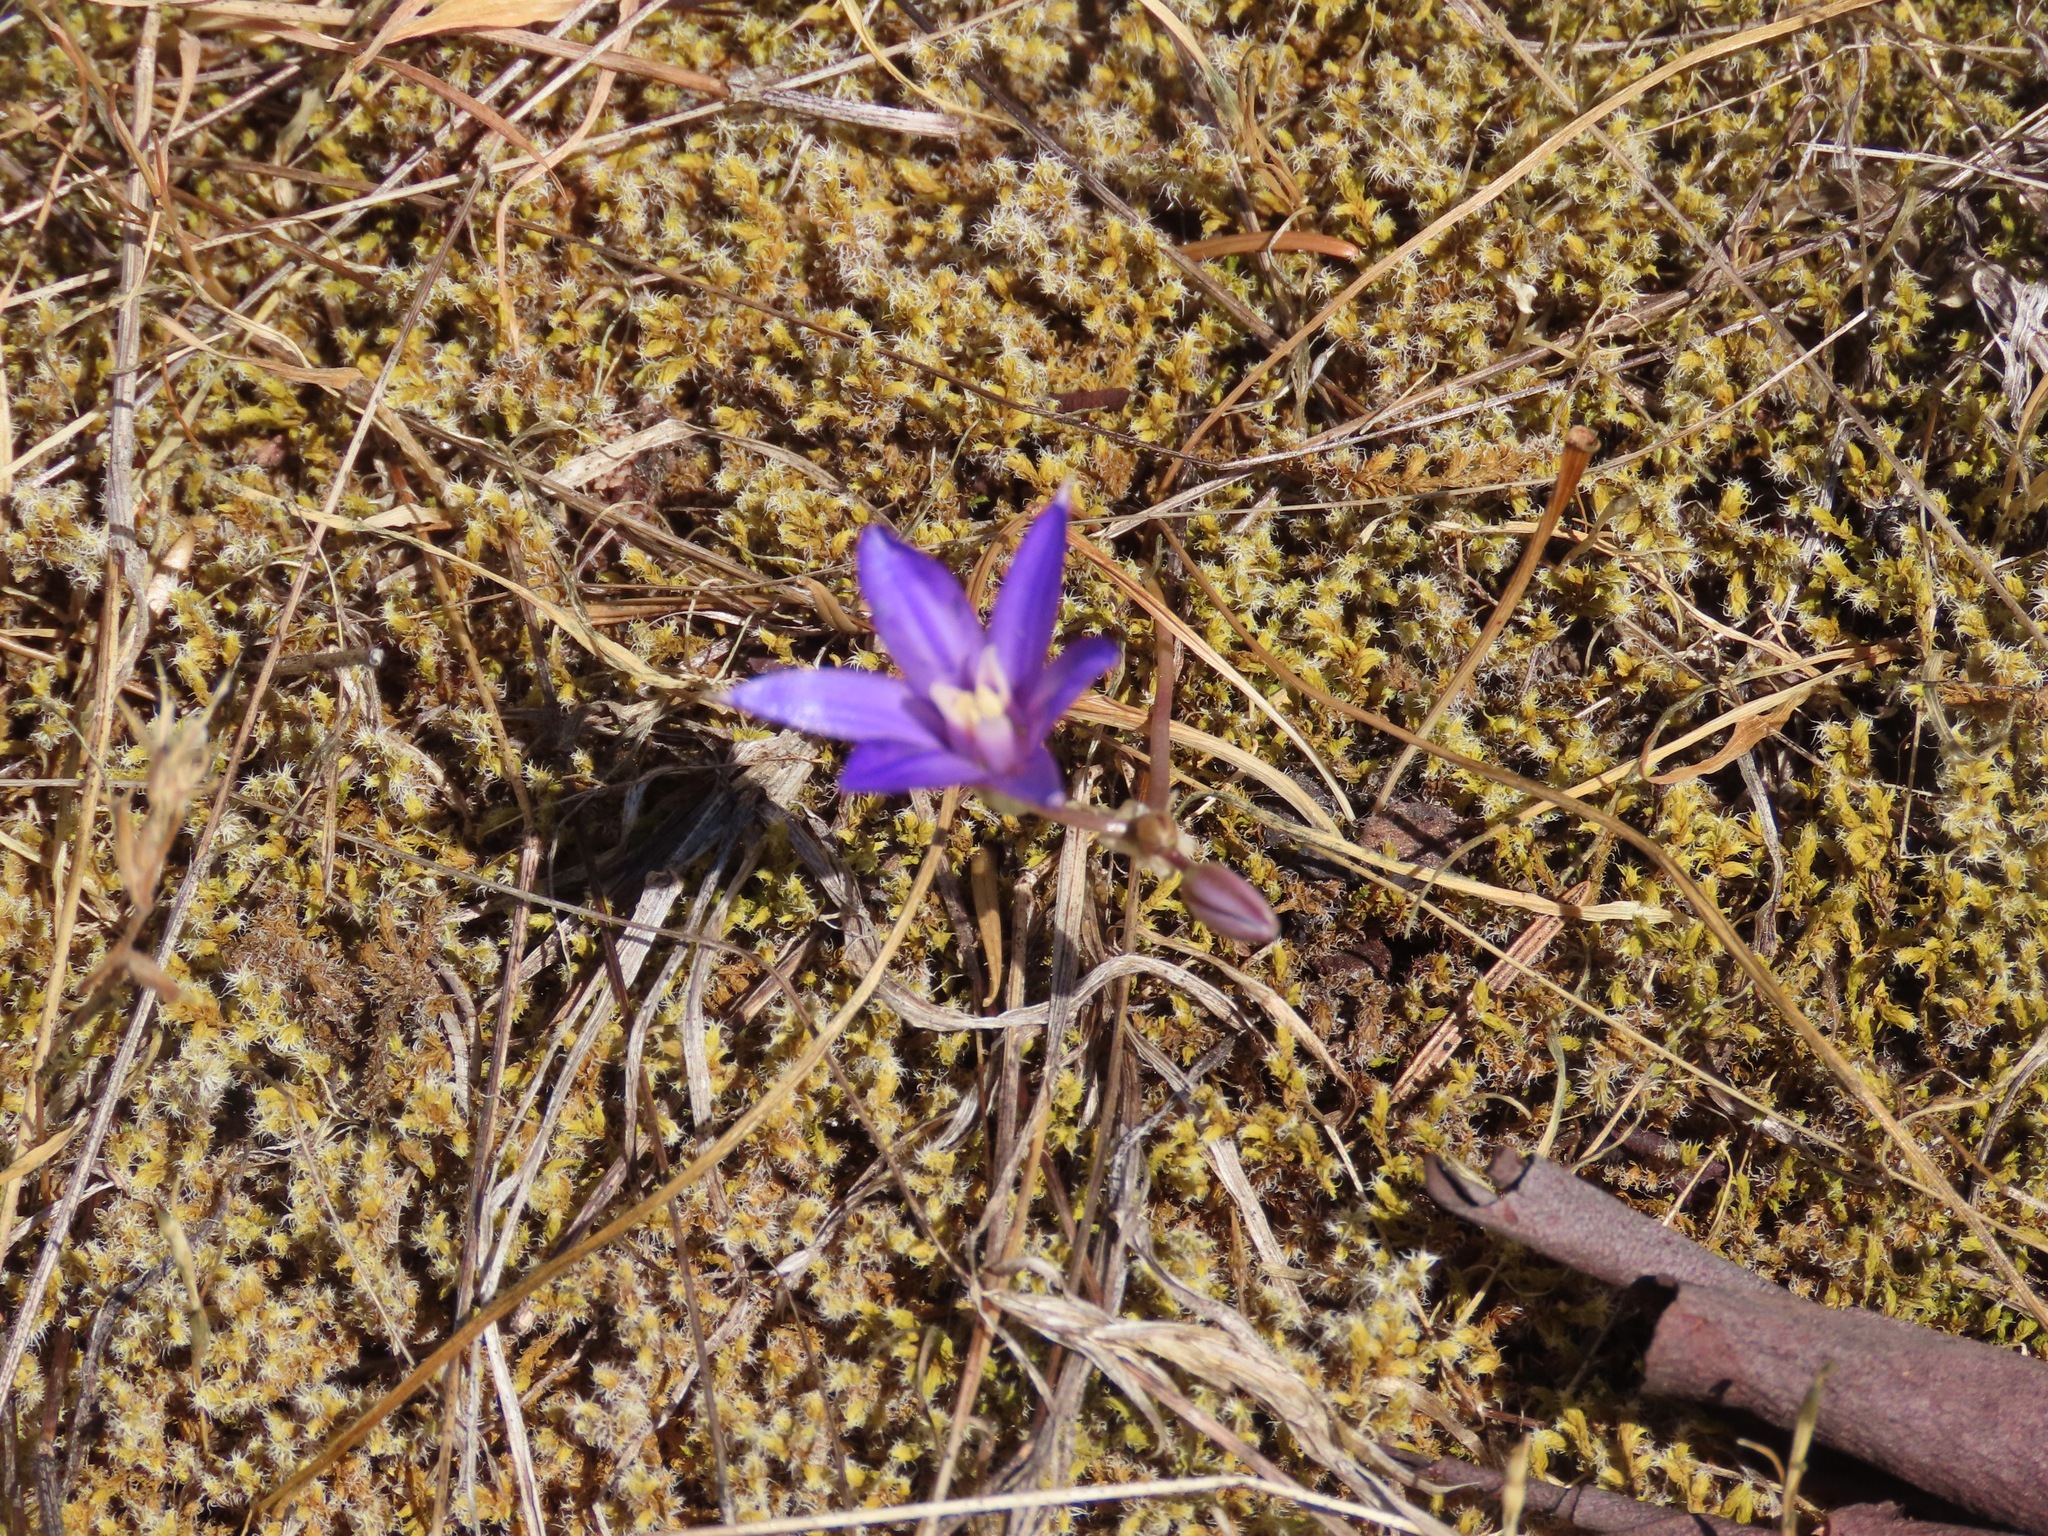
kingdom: Plantae
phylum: Tracheophyta
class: Liliopsida
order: Asparagales
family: Asparagaceae
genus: Brodiaea
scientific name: Brodiaea coronaria
